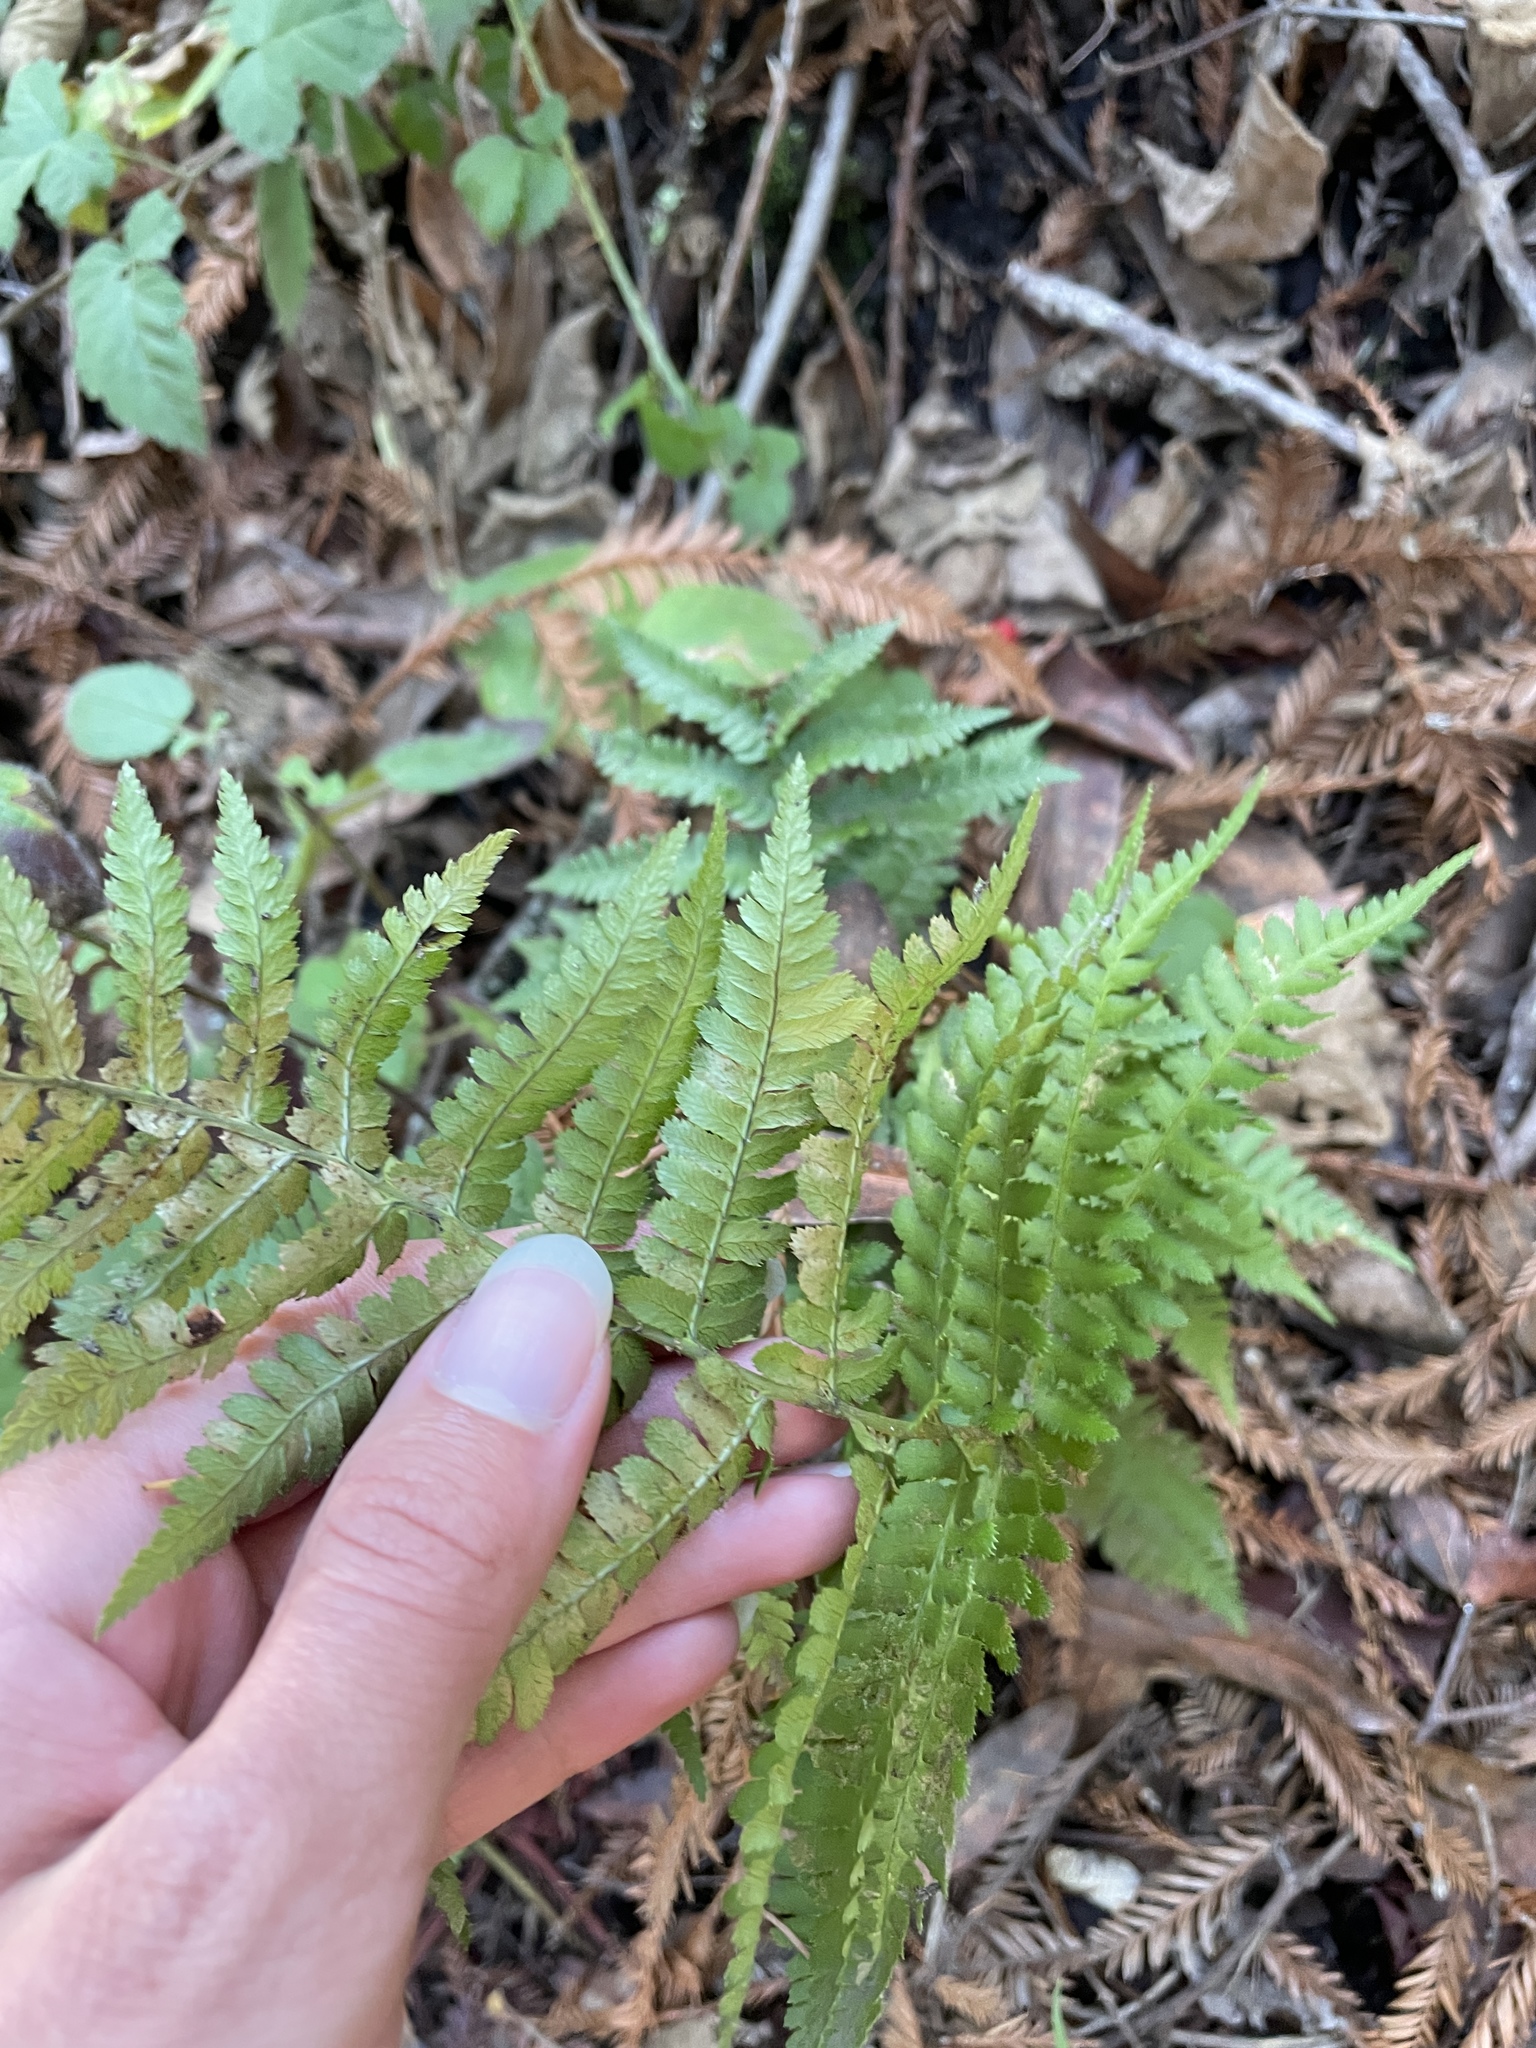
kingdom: Plantae
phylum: Tracheophyta
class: Polypodiopsida
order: Polypodiales
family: Dryopteridaceae
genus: Dryopteris
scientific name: Dryopteris arguta
